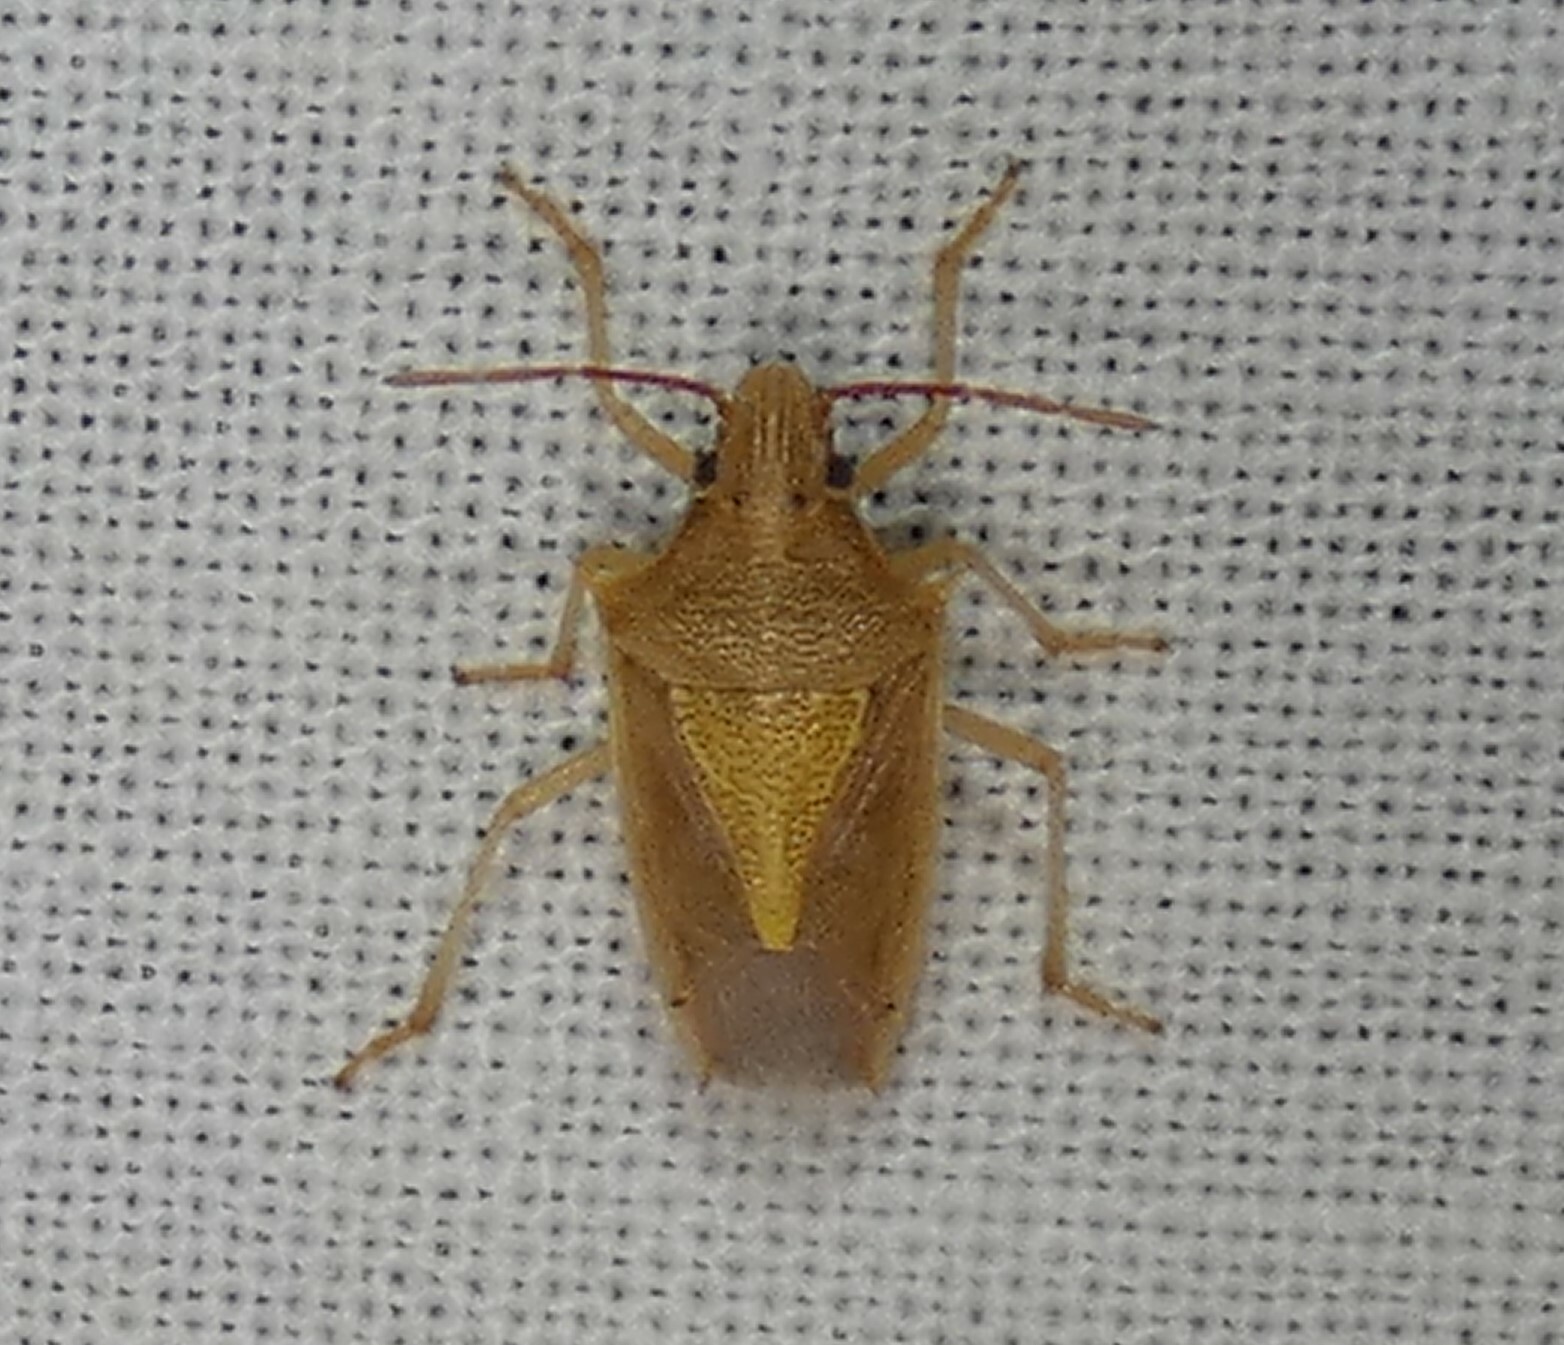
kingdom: Animalia
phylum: Arthropoda
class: Insecta
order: Hemiptera
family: Pentatomidae
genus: Oebalus
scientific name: Oebalus pugnax
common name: Rice stink bug
